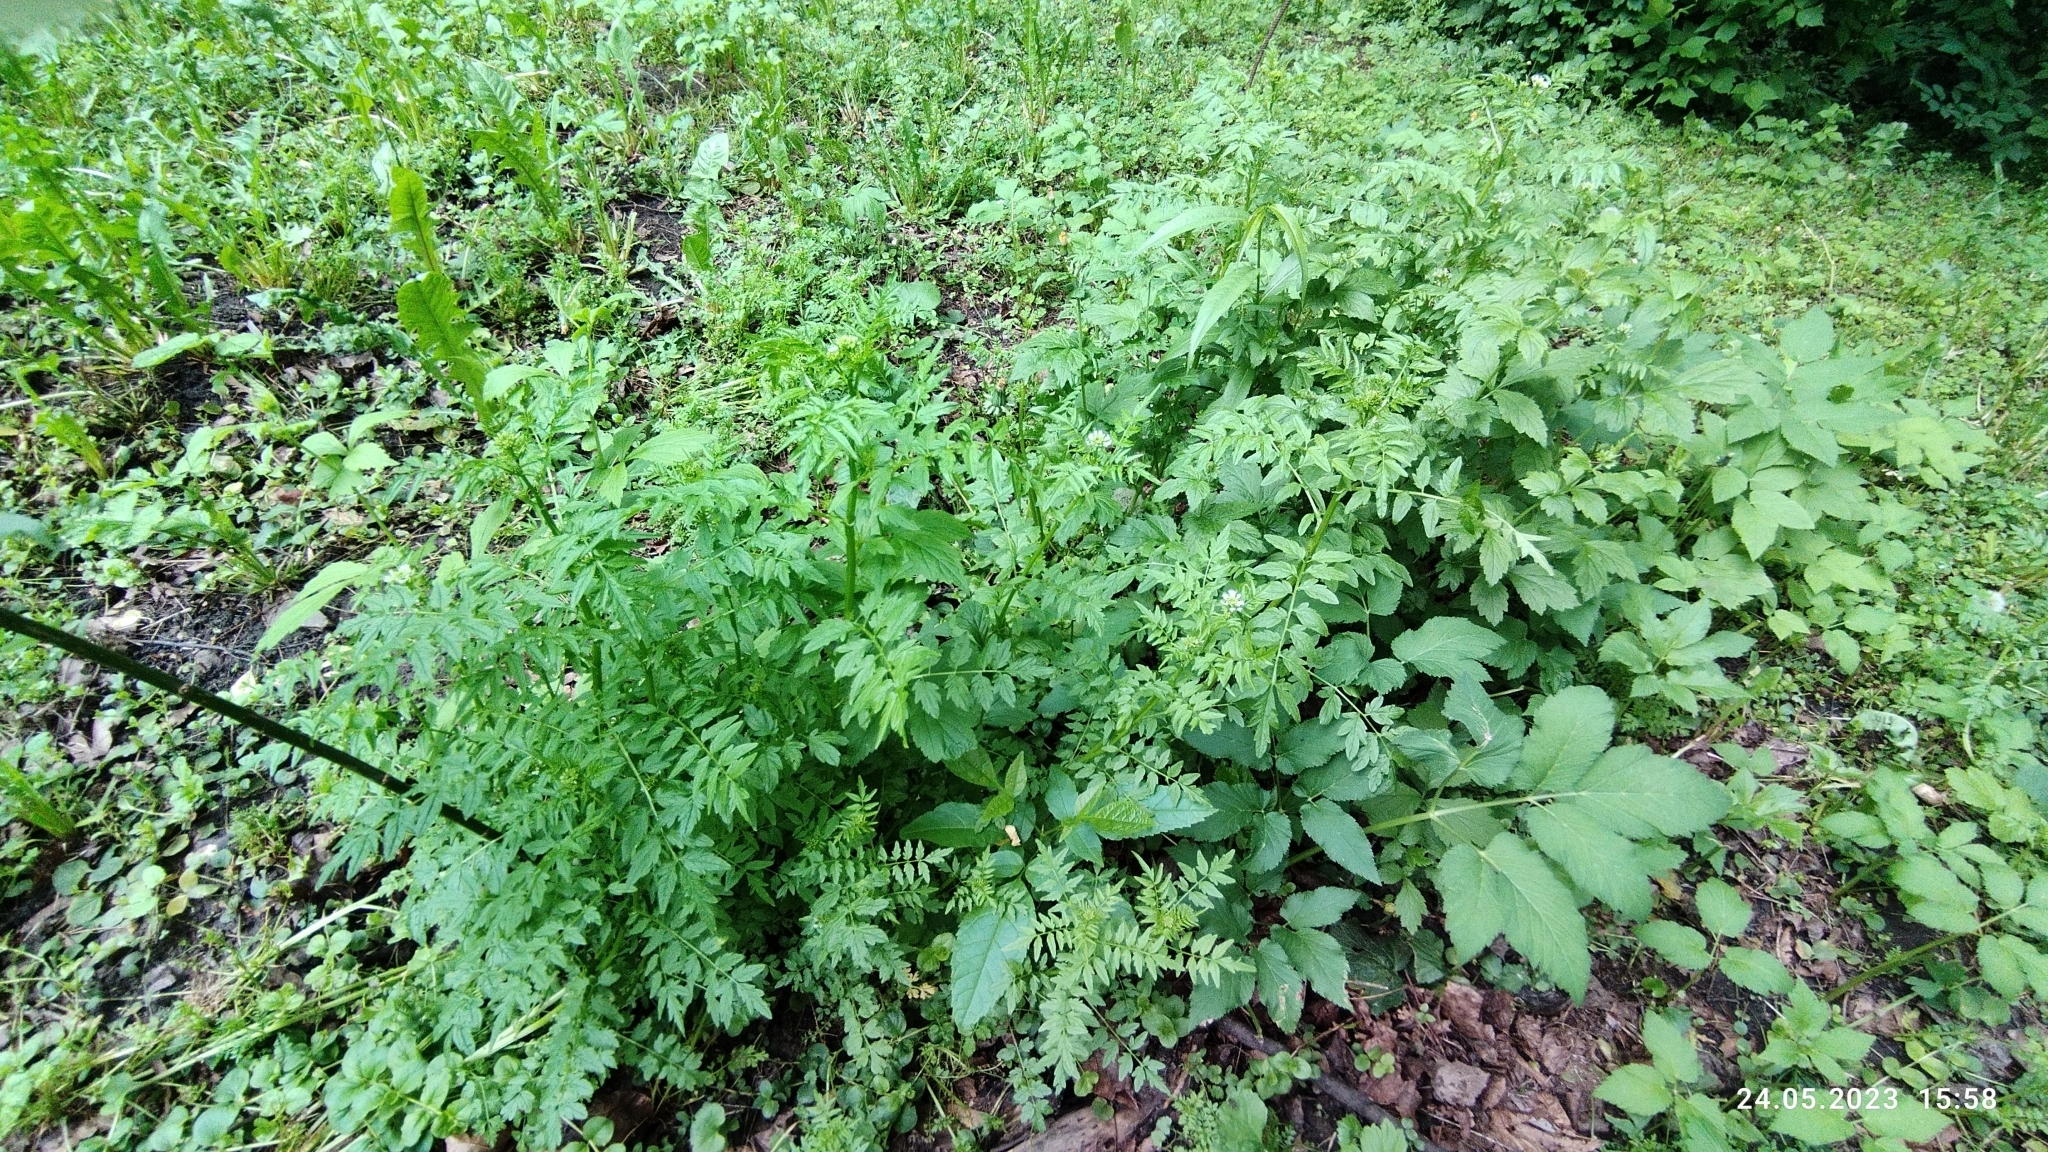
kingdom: Plantae
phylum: Tracheophyta
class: Magnoliopsida
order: Brassicales
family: Brassicaceae
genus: Cardamine
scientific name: Cardamine impatiens
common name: Narrow-leaved bitter-cress
